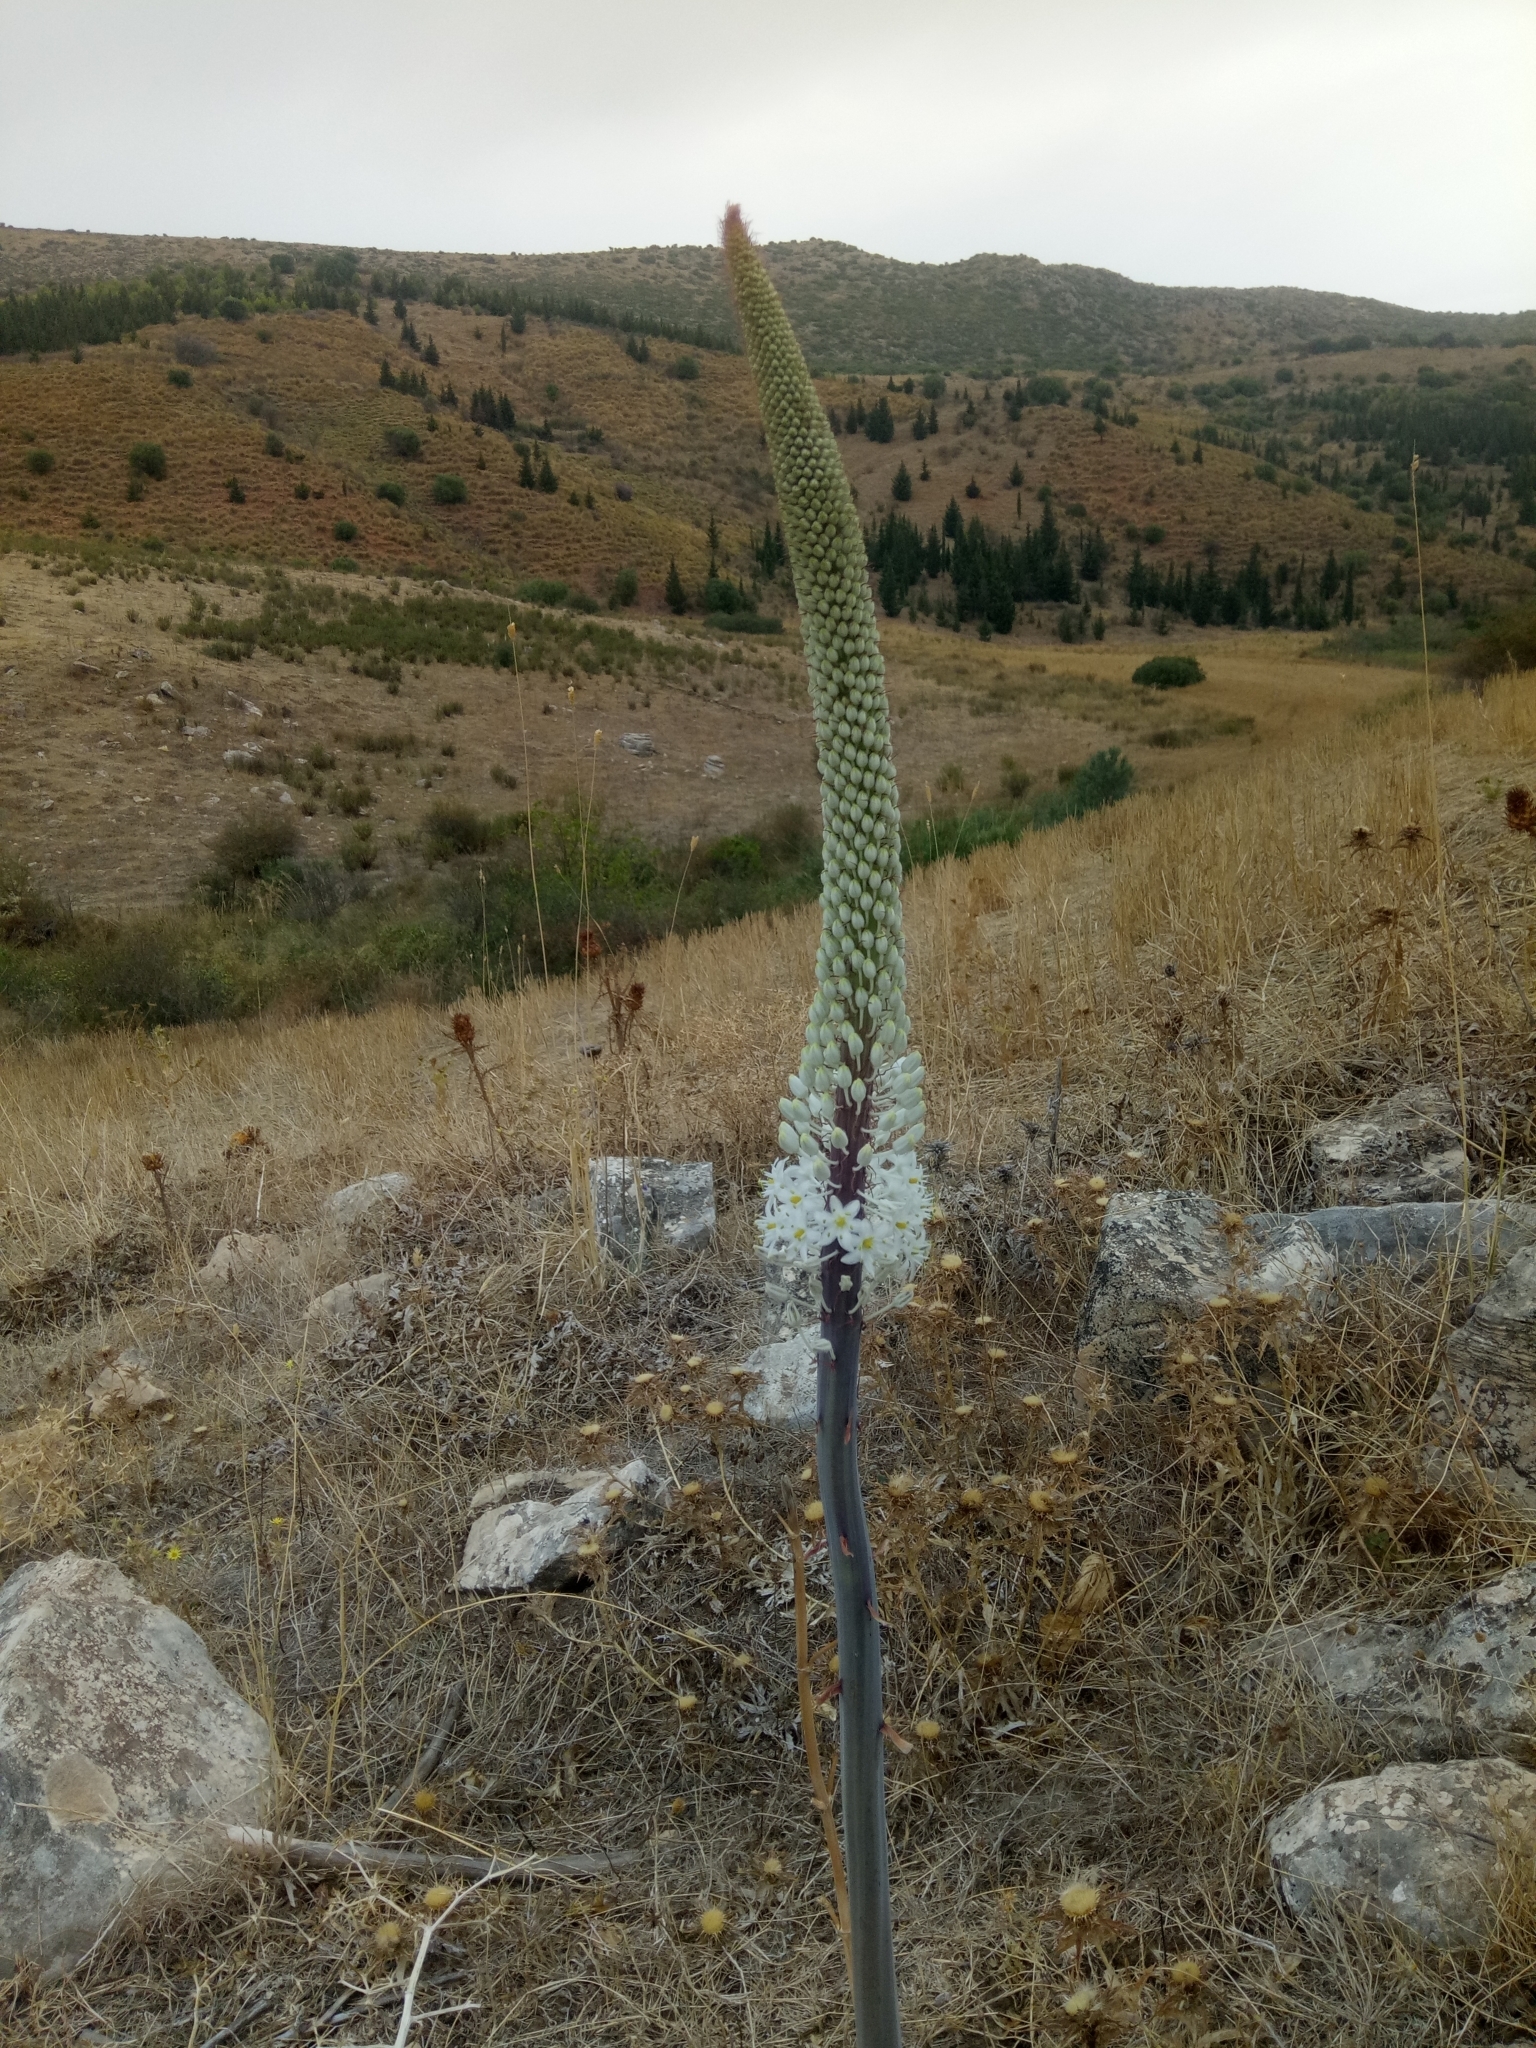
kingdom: Plantae
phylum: Tracheophyta
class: Liliopsida
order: Asparagales
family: Asparagaceae
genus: Drimia
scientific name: Drimia numidica
